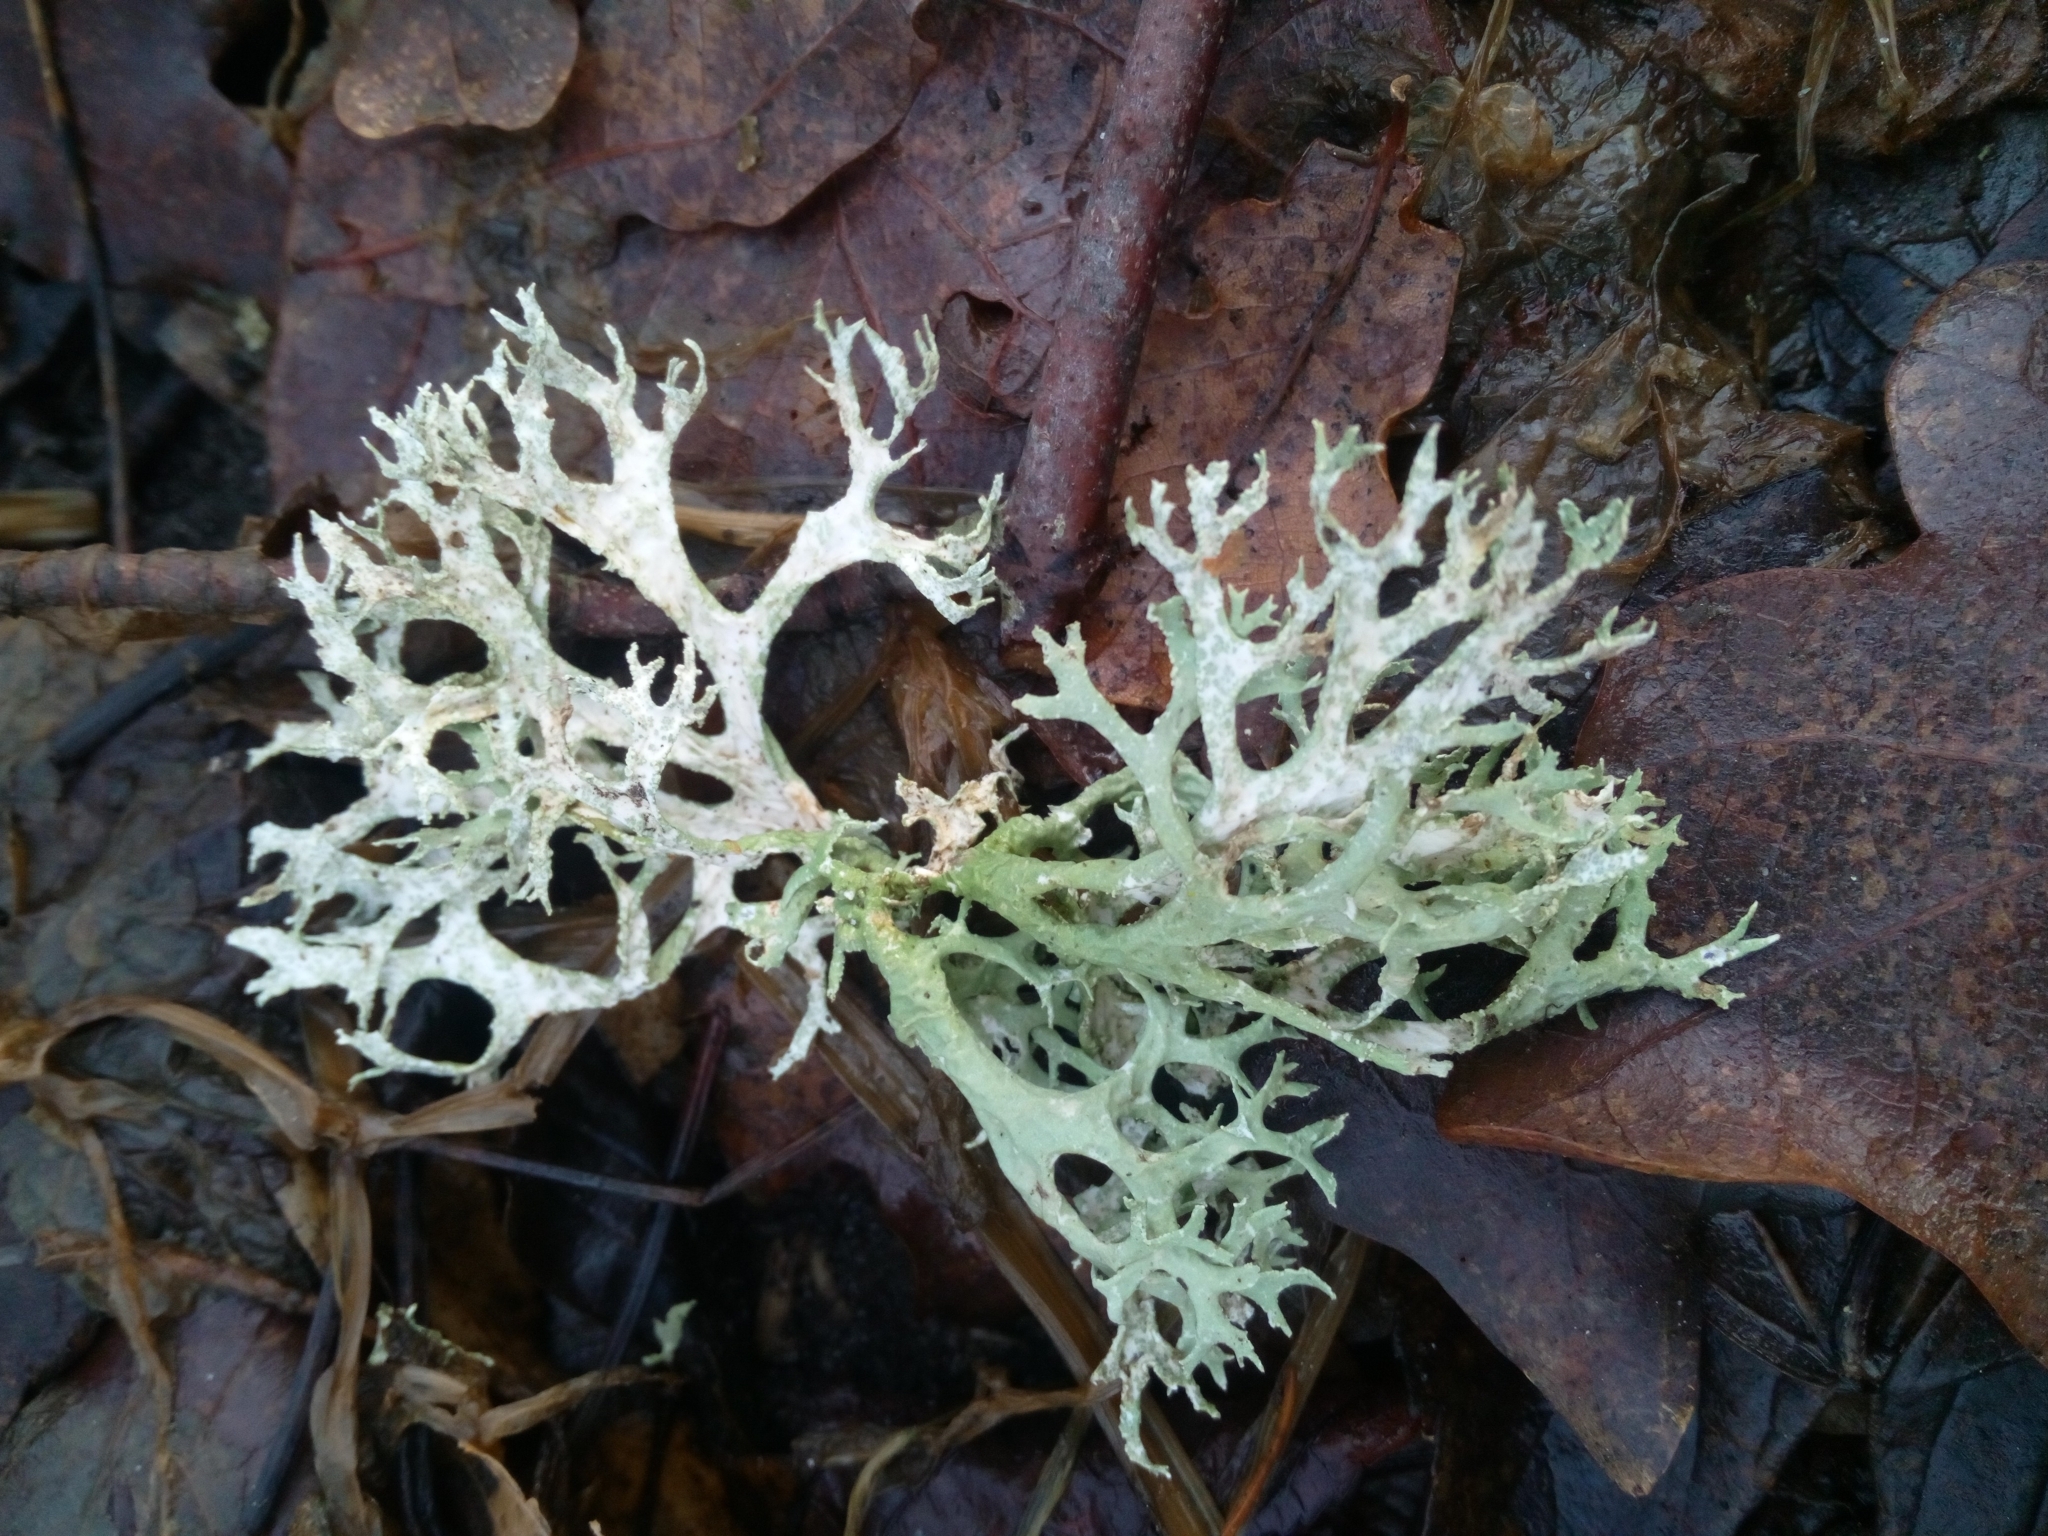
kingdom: Fungi
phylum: Ascomycota
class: Lecanoromycetes
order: Lecanorales
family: Parmeliaceae
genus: Evernia
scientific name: Evernia prunastri
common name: Oak moss
